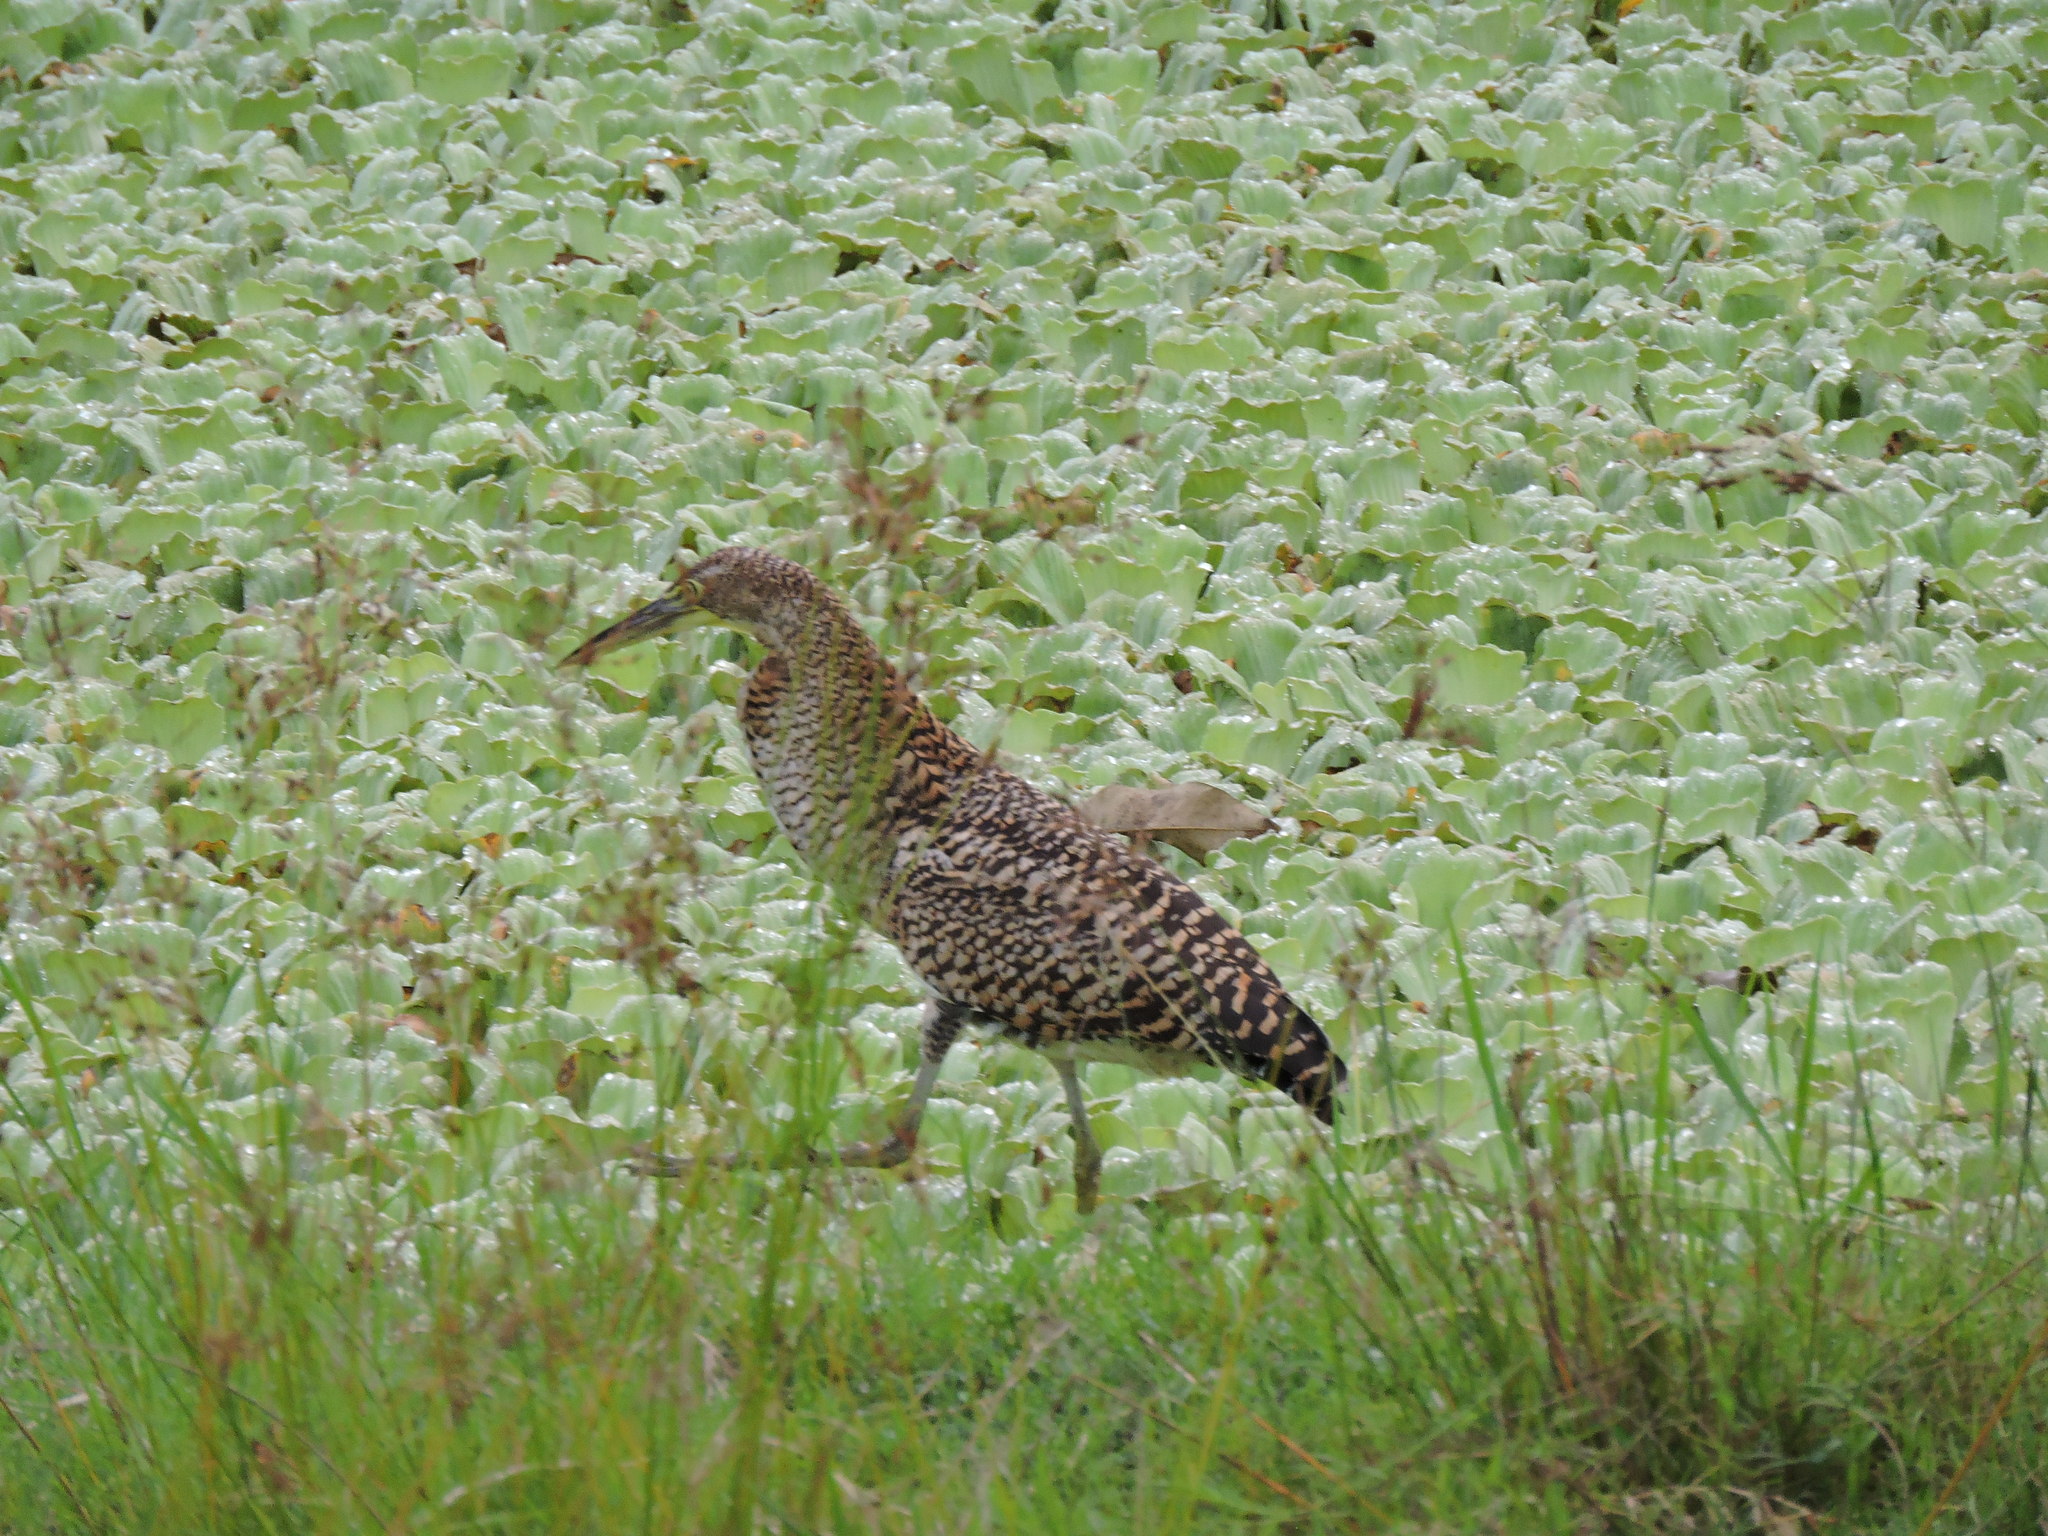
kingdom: Animalia
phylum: Chordata
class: Aves
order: Pelecaniformes
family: Ardeidae
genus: Tigrisoma
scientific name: Tigrisoma mexicanum
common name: Bare-throated tiger-heron
